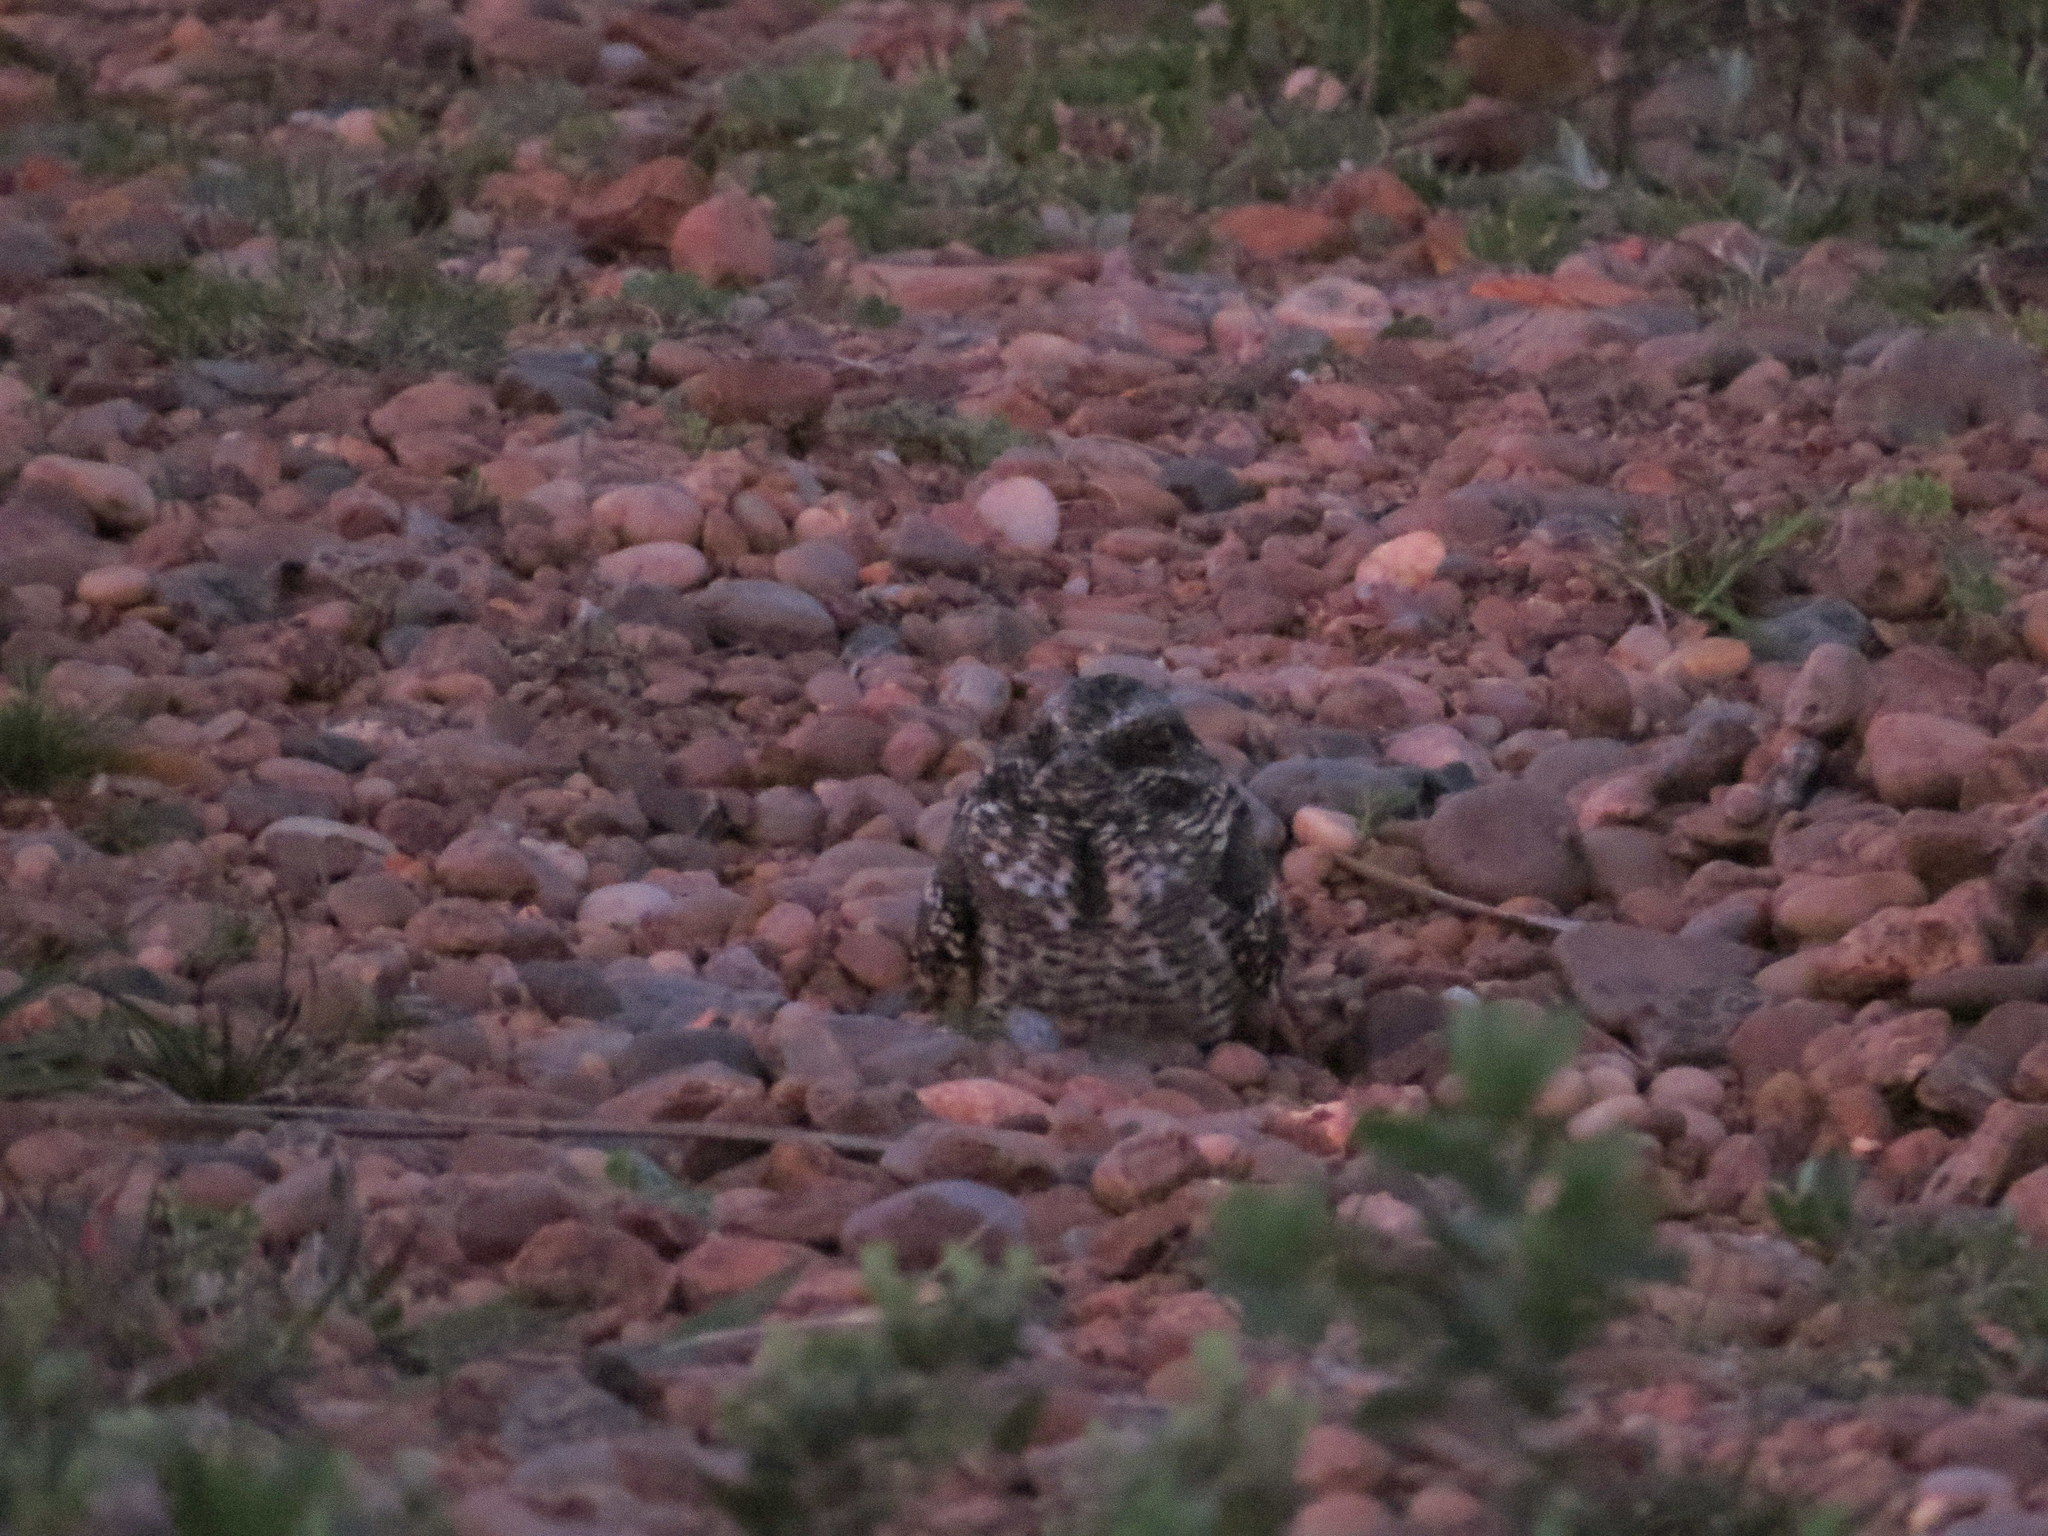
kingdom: Animalia
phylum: Chordata
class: Aves
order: Caprimulgiformes
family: Caprimulgidae
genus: Setopagis
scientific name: Setopagis parvula
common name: Little nightjar
